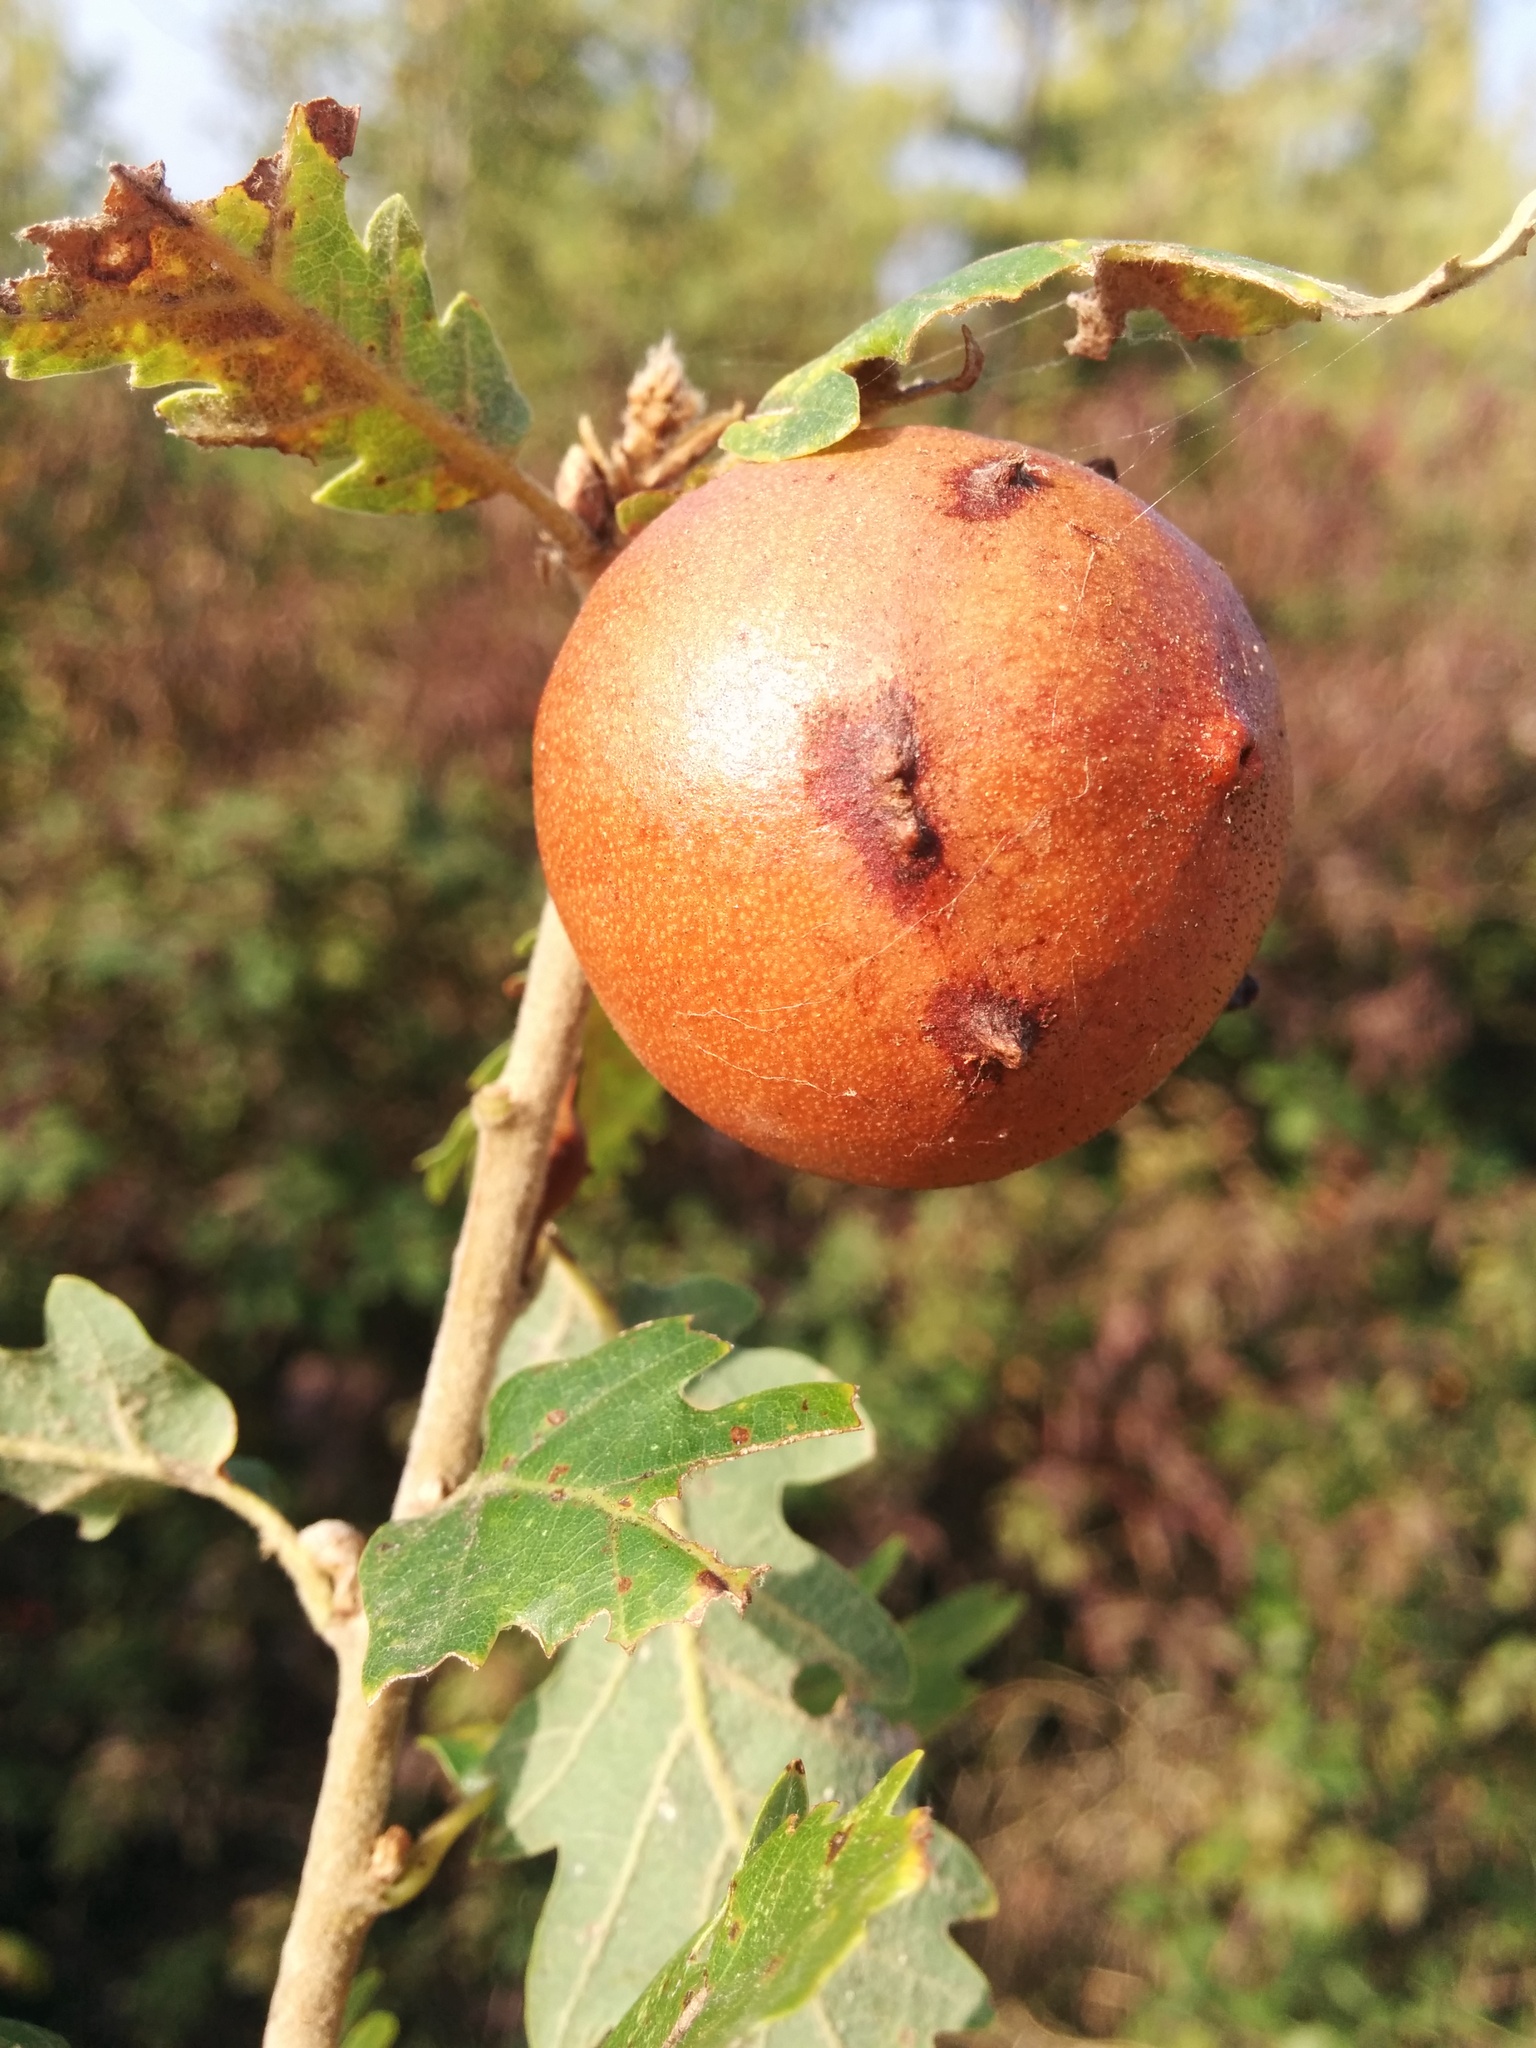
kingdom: Animalia
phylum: Arthropoda
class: Insecta
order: Hymenoptera
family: Cynipidae
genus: Andricus
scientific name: Andricus quercustozae
